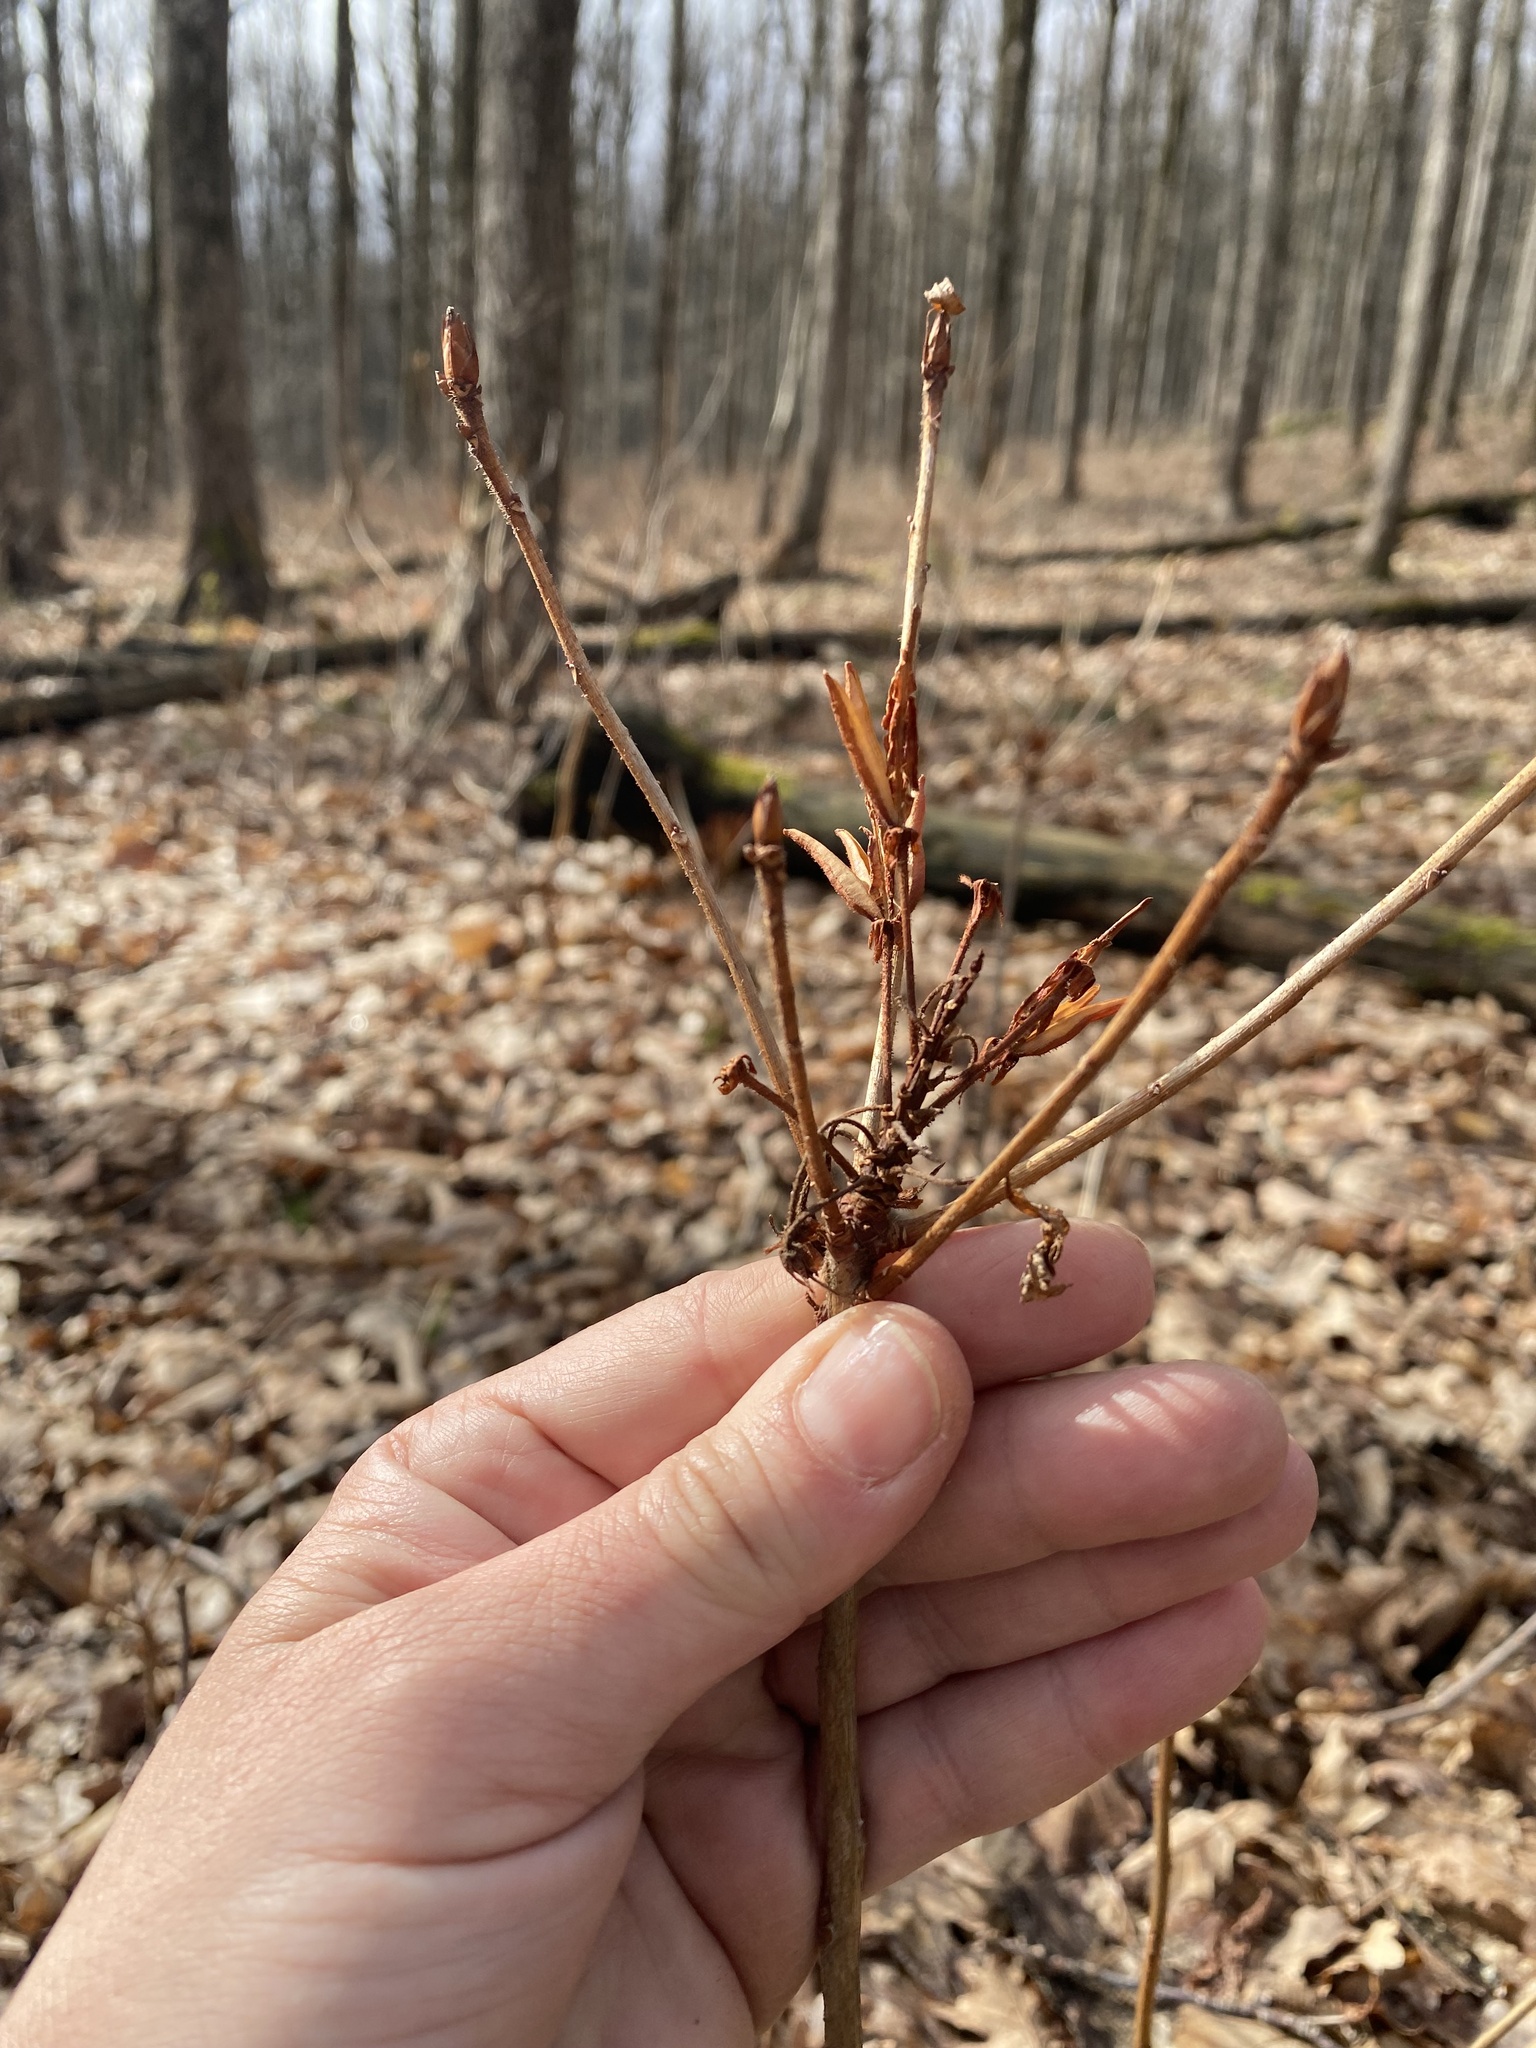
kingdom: Plantae
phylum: Tracheophyta
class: Magnoliopsida
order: Ericales
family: Ericaceae
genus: Rhododendron
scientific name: Rhododendron luteum
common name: Yellow azalea
